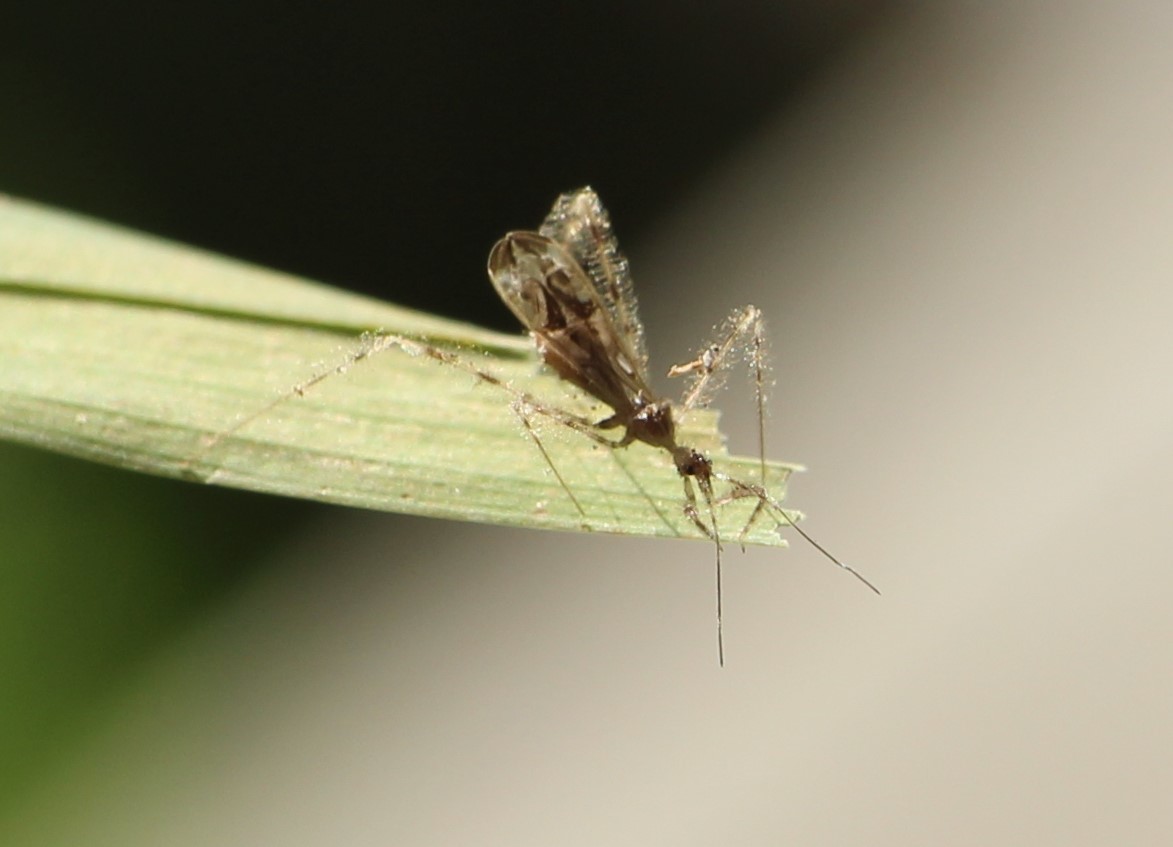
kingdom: Animalia
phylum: Arthropoda
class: Insecta
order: Hemiptera
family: Reduviidae
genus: Stenolemus
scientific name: Stenolemus fraterculus
